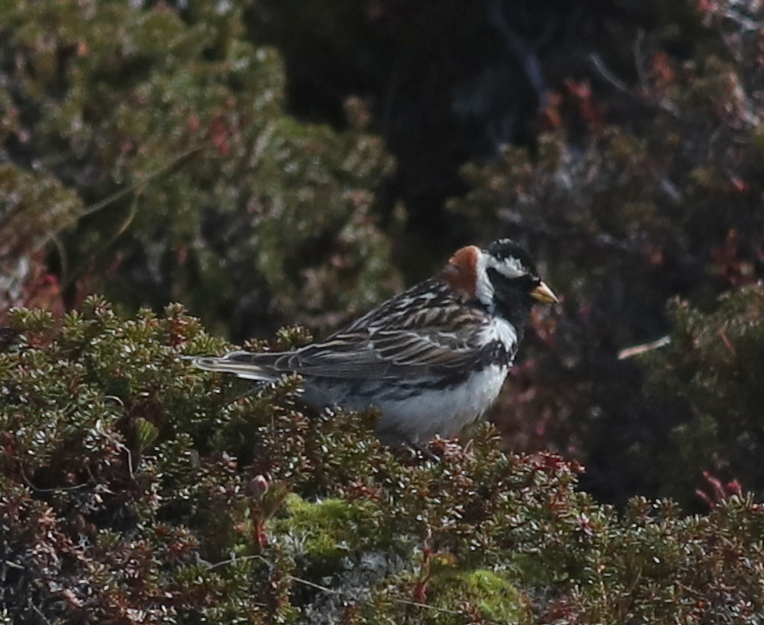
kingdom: Animalia
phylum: Chordata
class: Aves
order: Passeriformes
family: Calcariidae
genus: Calcarius
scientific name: Calcarius lapponicus
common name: Lapland longspur
